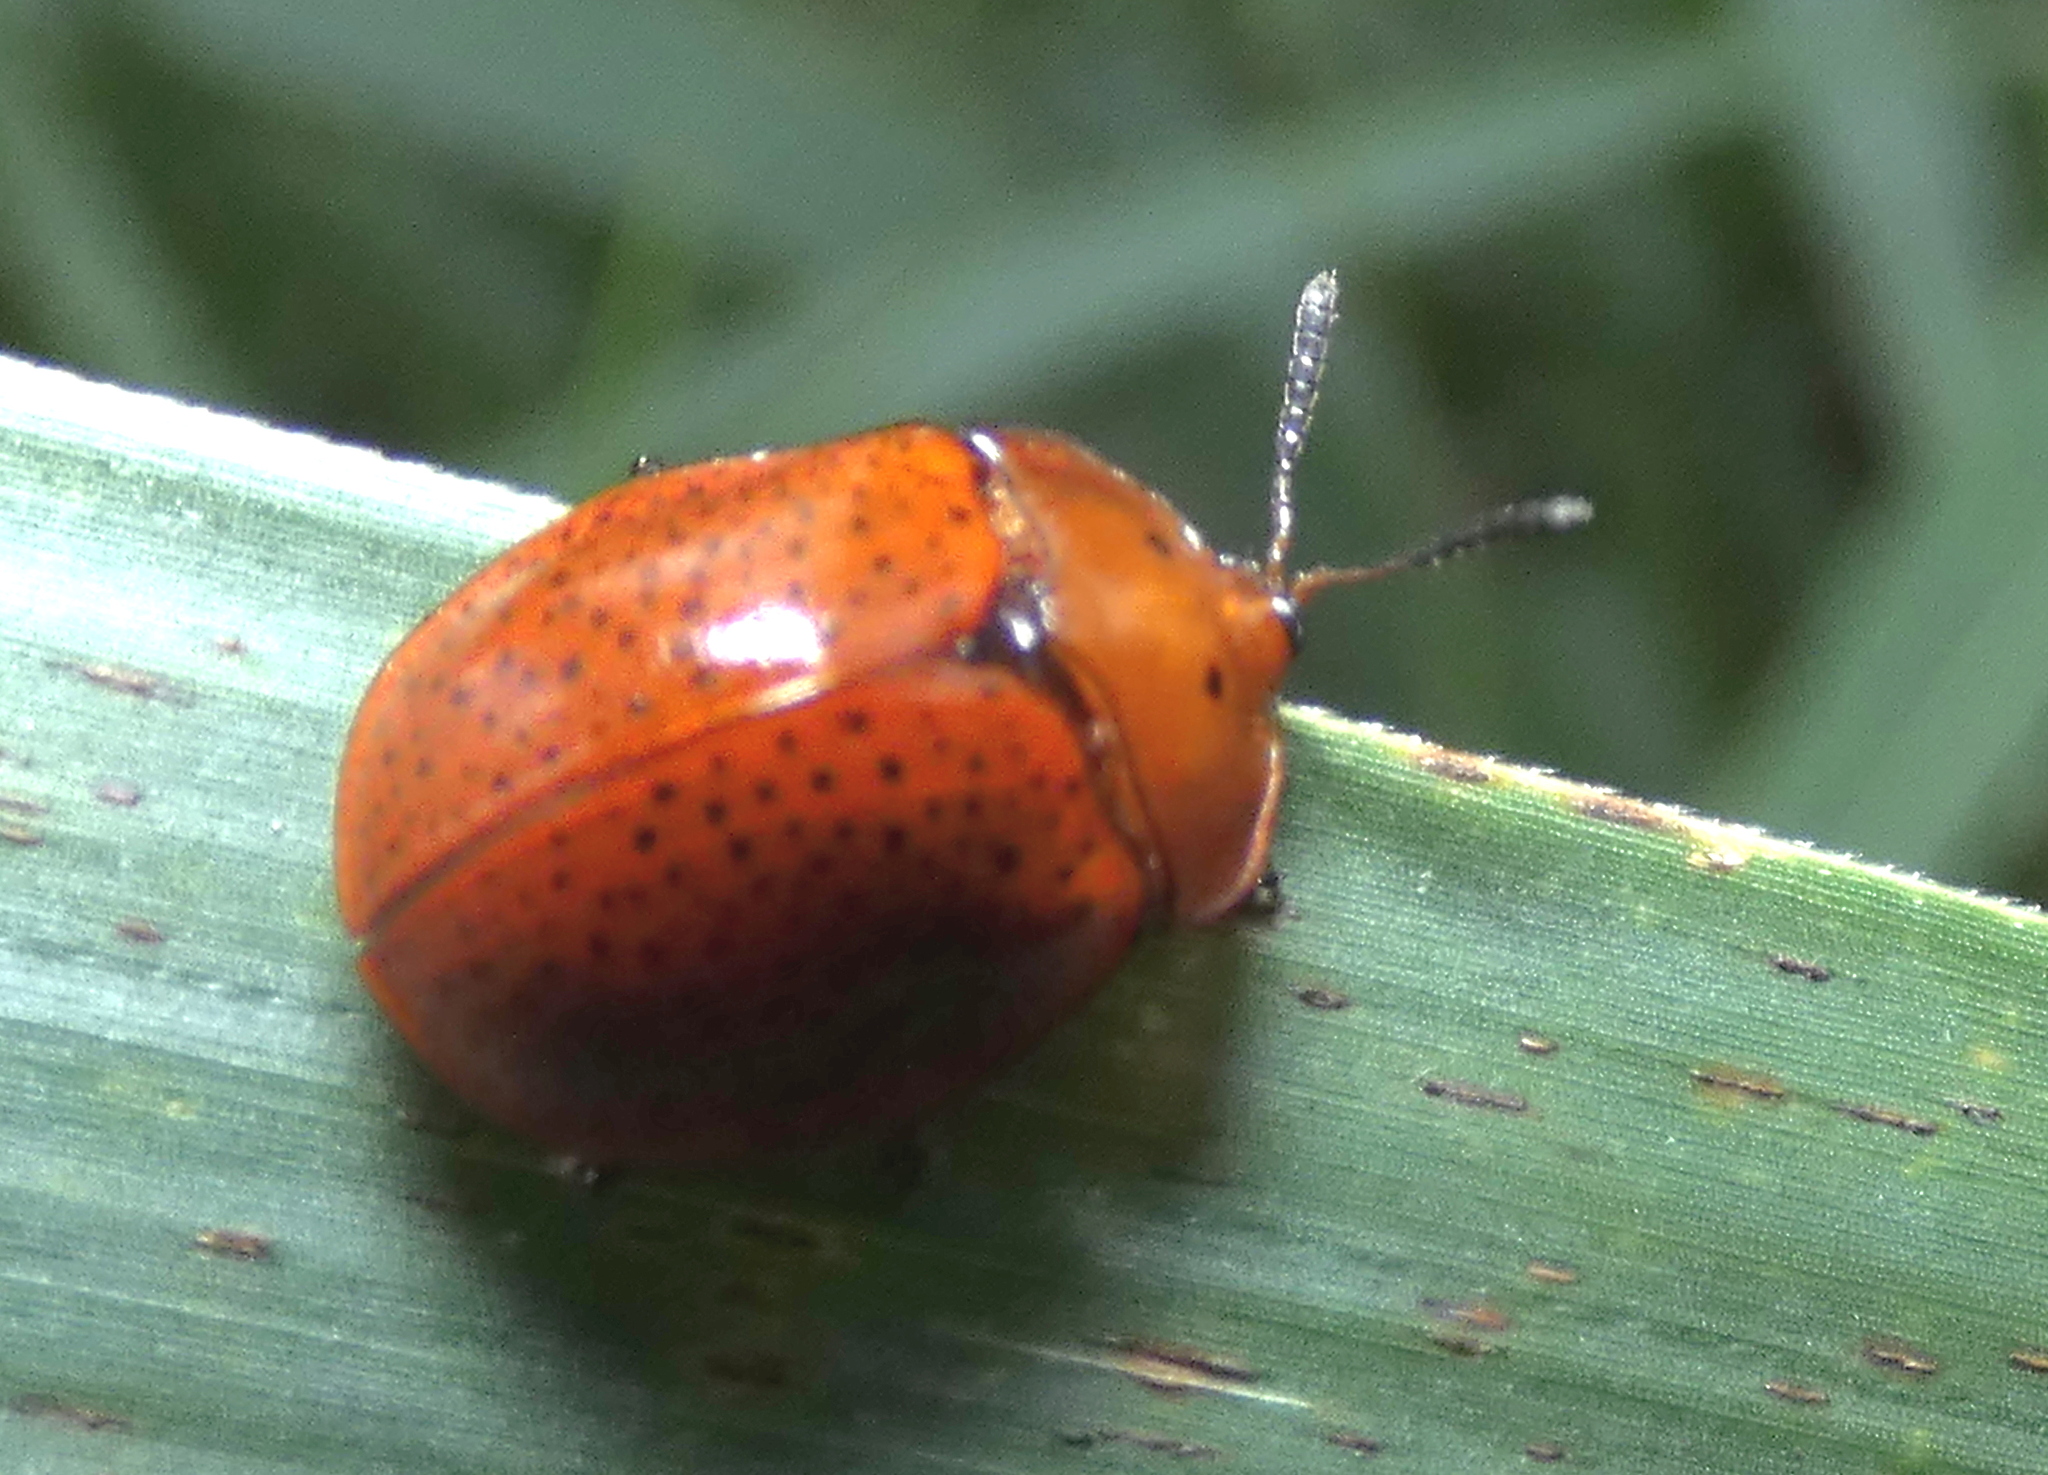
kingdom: Animalia
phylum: Arthropoda
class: Insecta
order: Coleoptera
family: Chrysomelidae
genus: Chelymorpha
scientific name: Chelymorpha subpunctata
